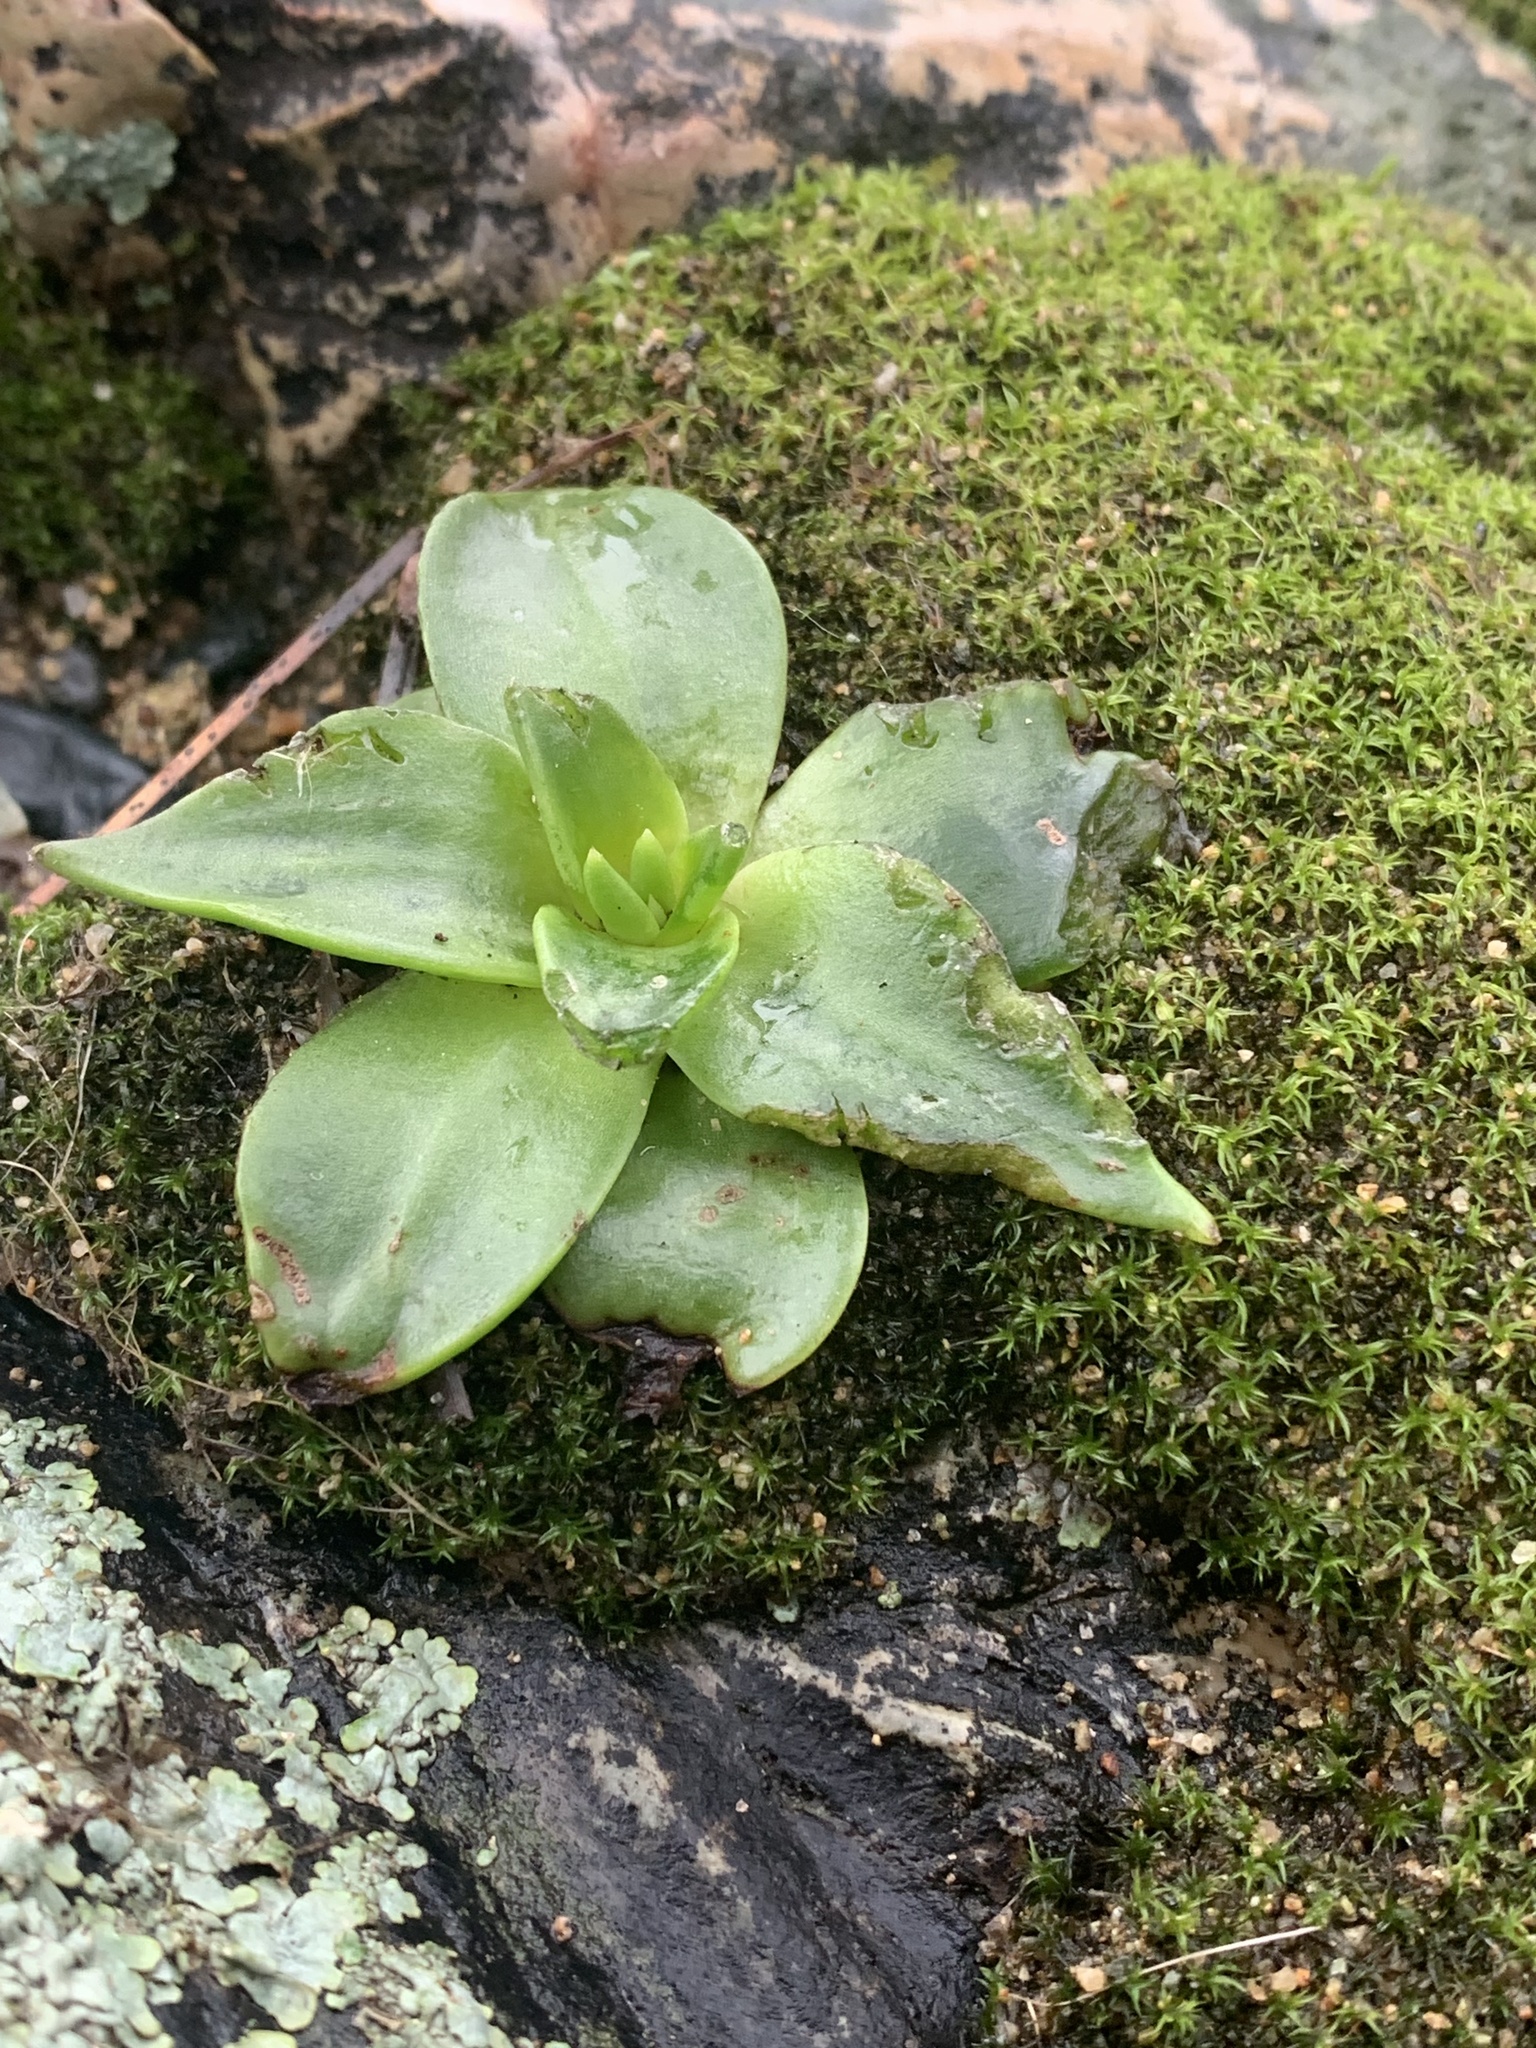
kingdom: Plantae
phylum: Tracheophyta
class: Magnoliopsida
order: Saxifragales
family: Crassulaceae
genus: Dudleya
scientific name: Dudleya cymosa
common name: Canyon dudleya
